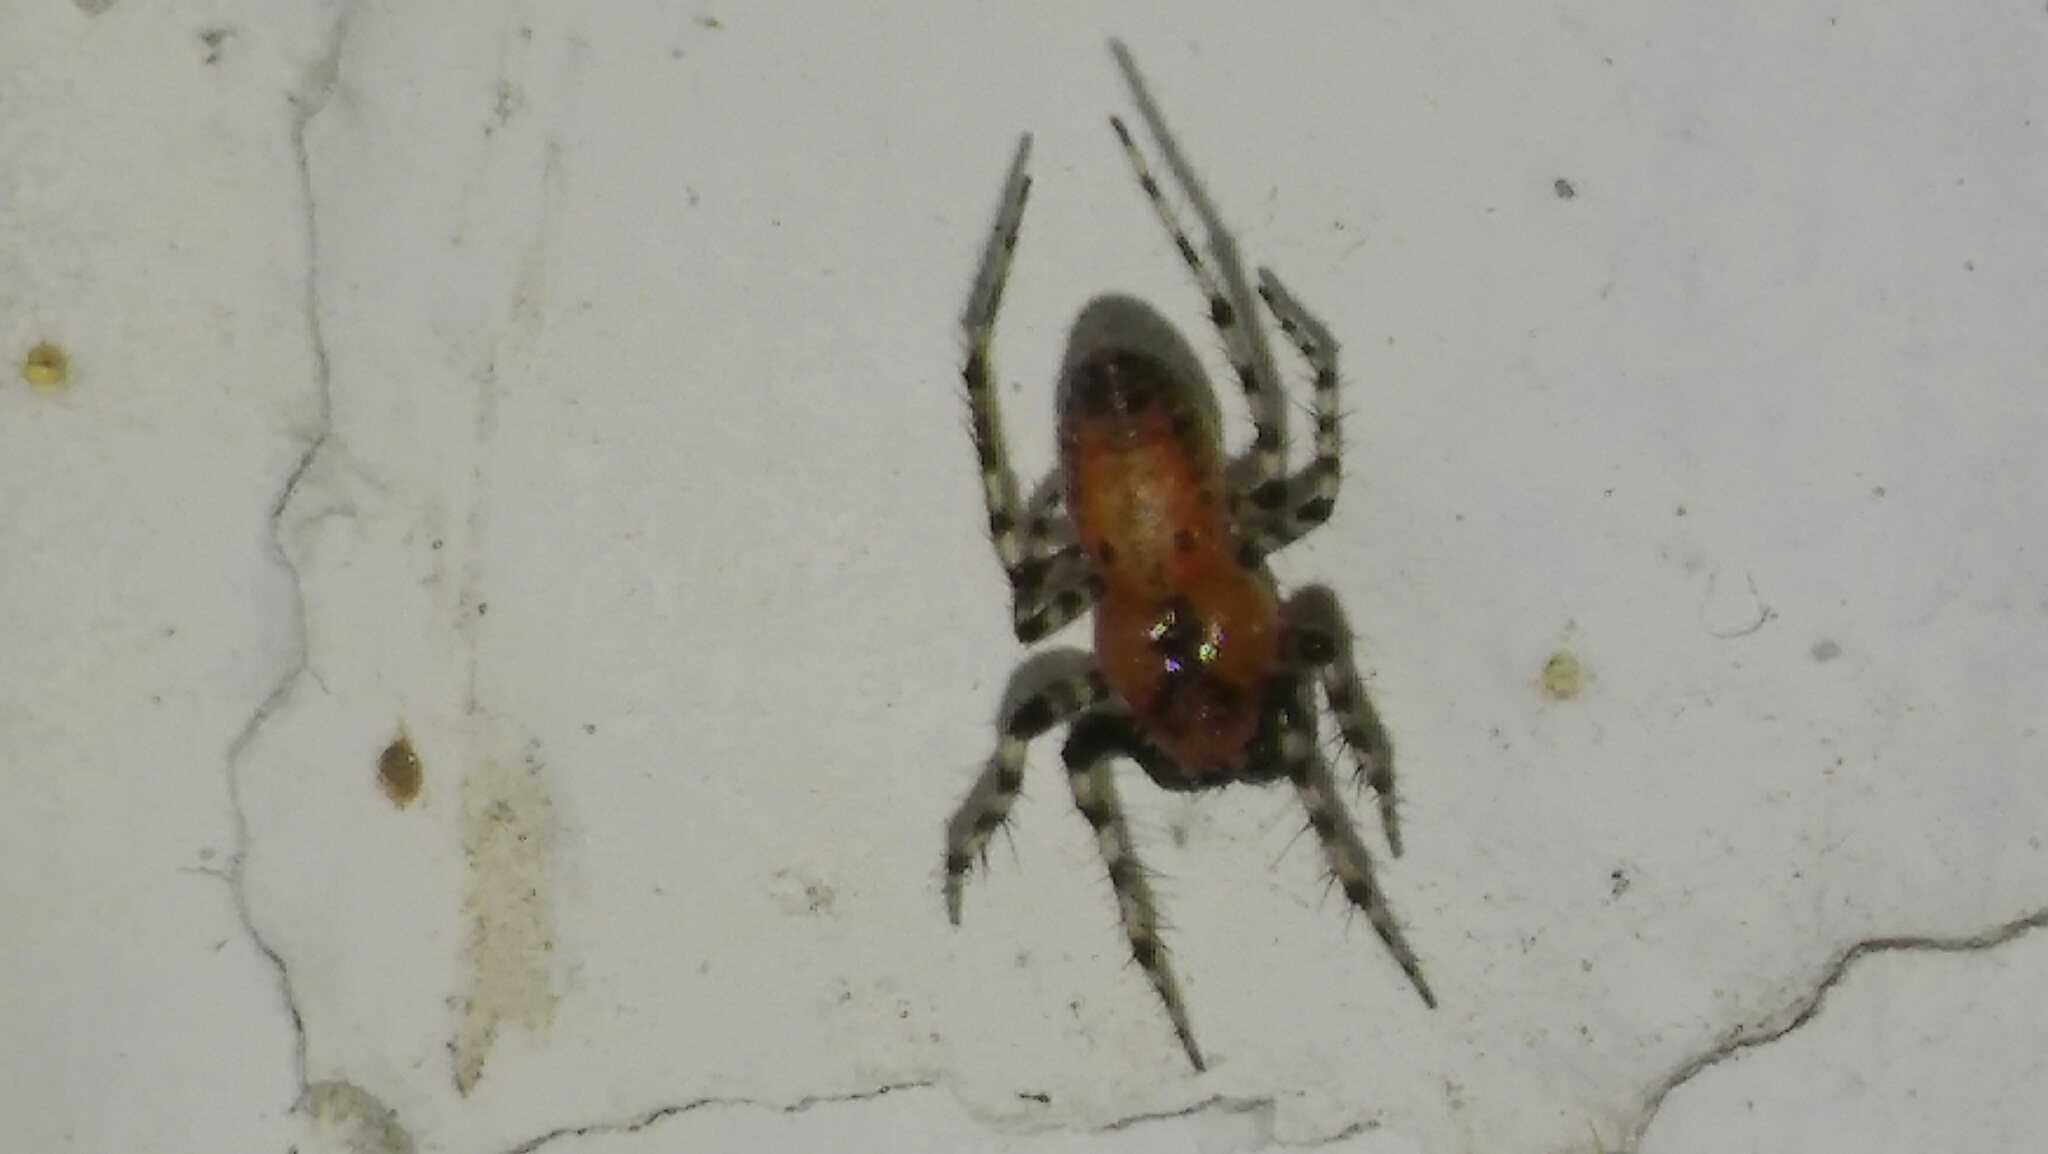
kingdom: Animalia
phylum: Arthropoda
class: Arachnida
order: Araneae
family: Araneidae
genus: Alpaida
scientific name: Alpaida gallardoi
